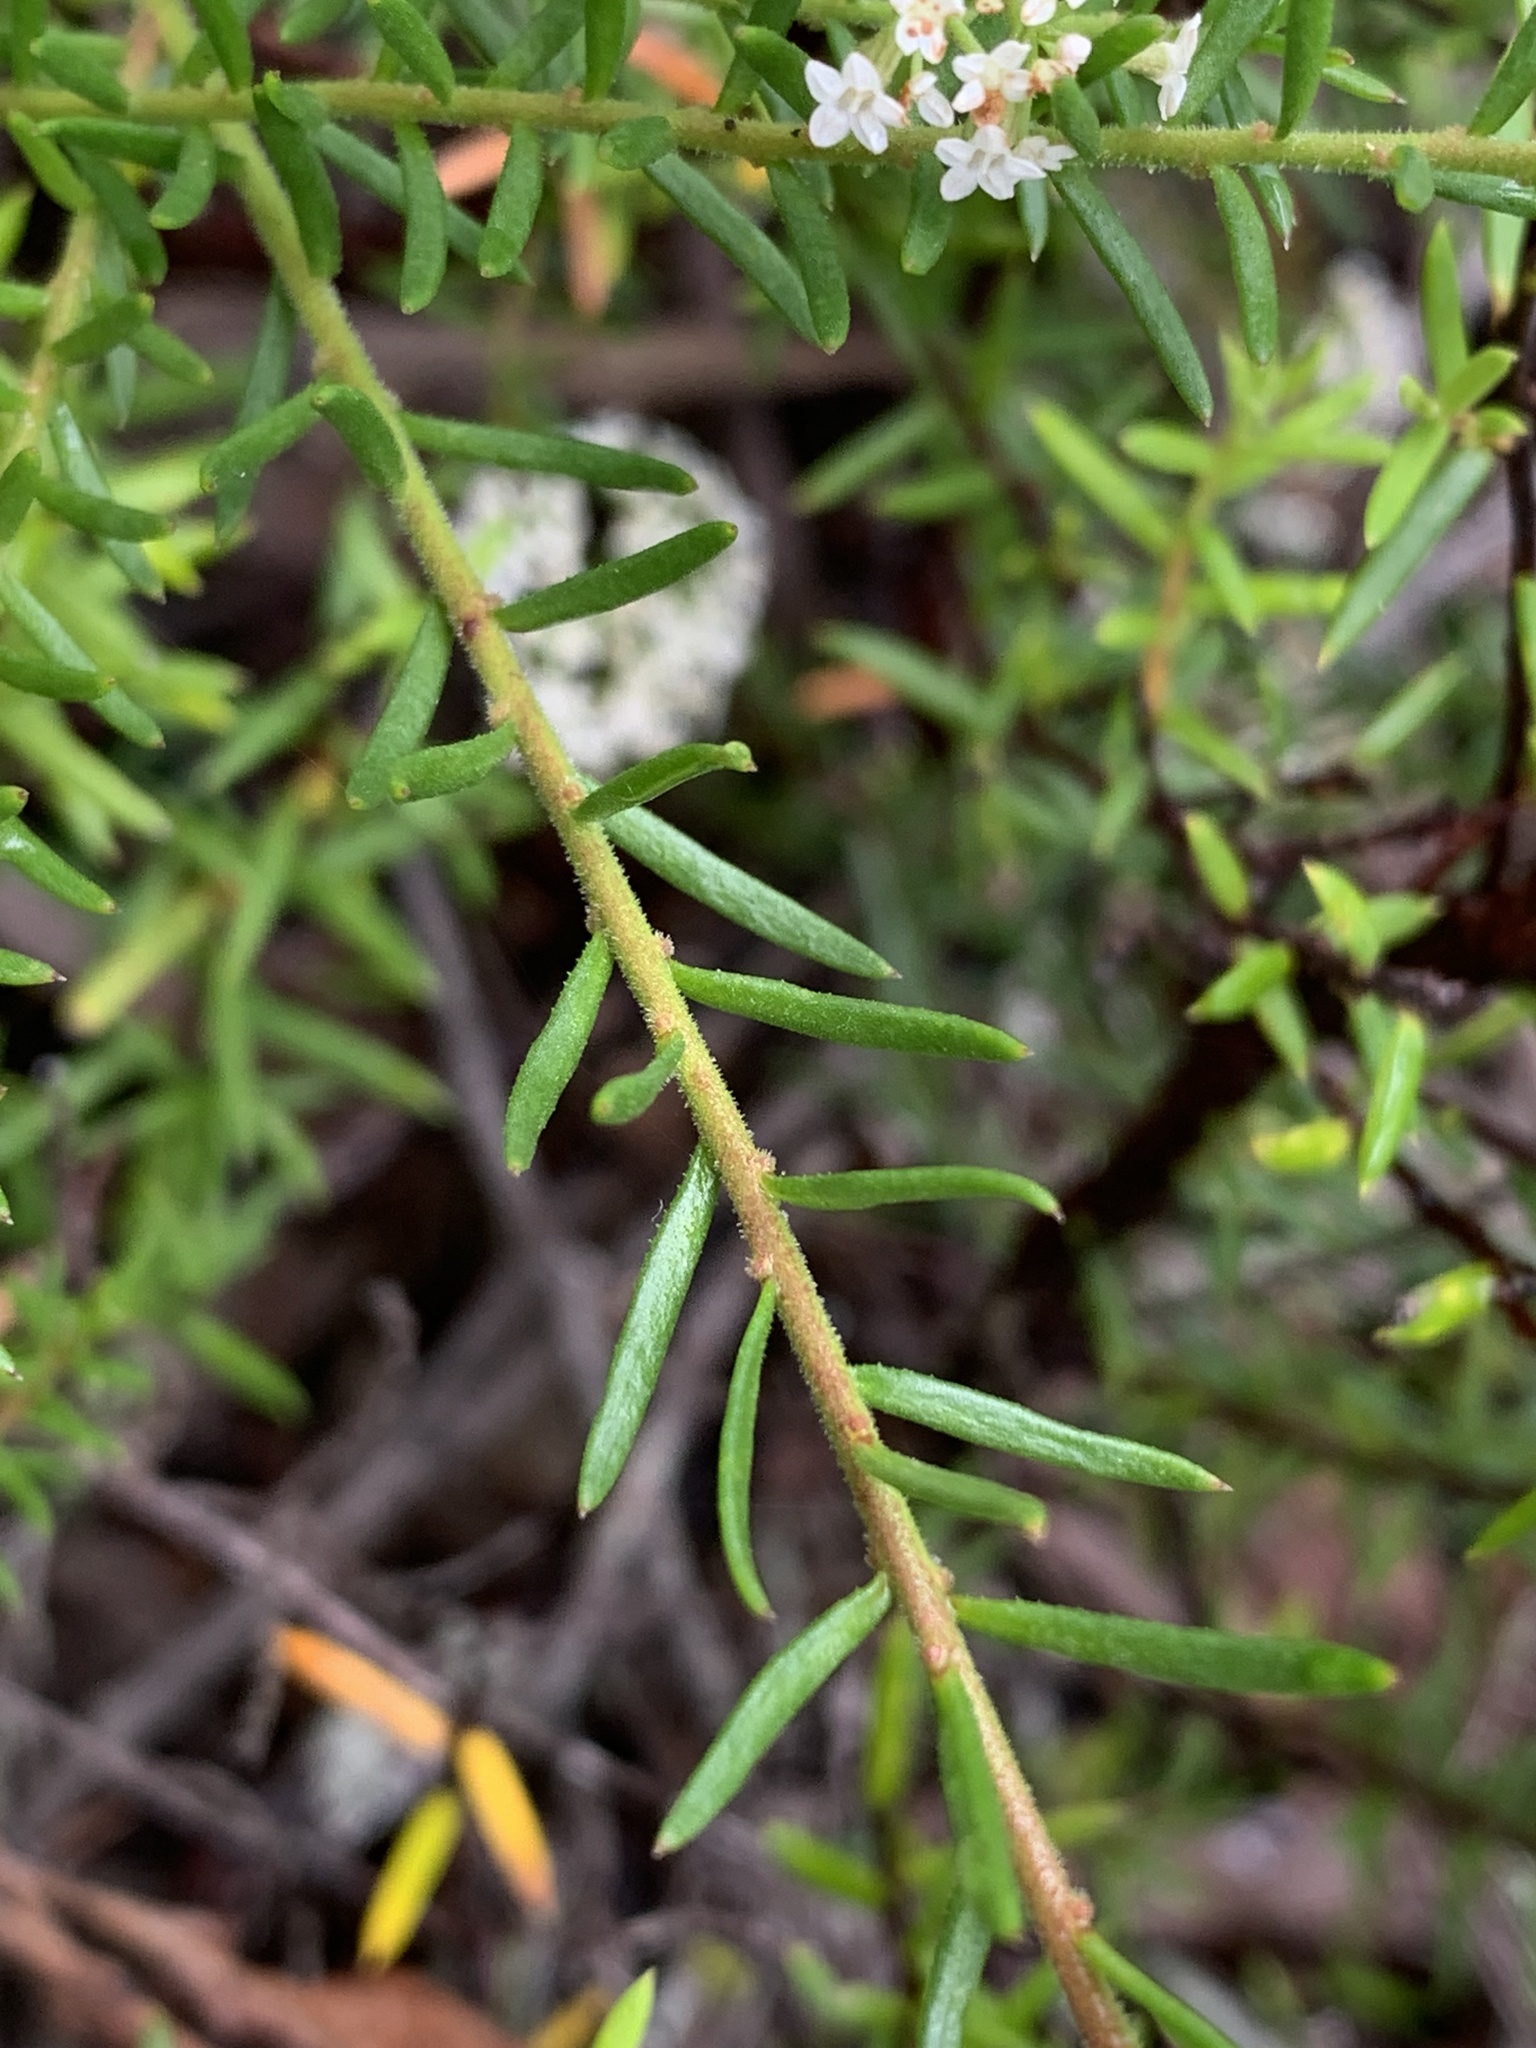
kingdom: Plantae
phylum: Tracheophyta
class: Magnoliopsida
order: Apiales
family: Apiaceae
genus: Platysace
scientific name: Platysace ericoides
